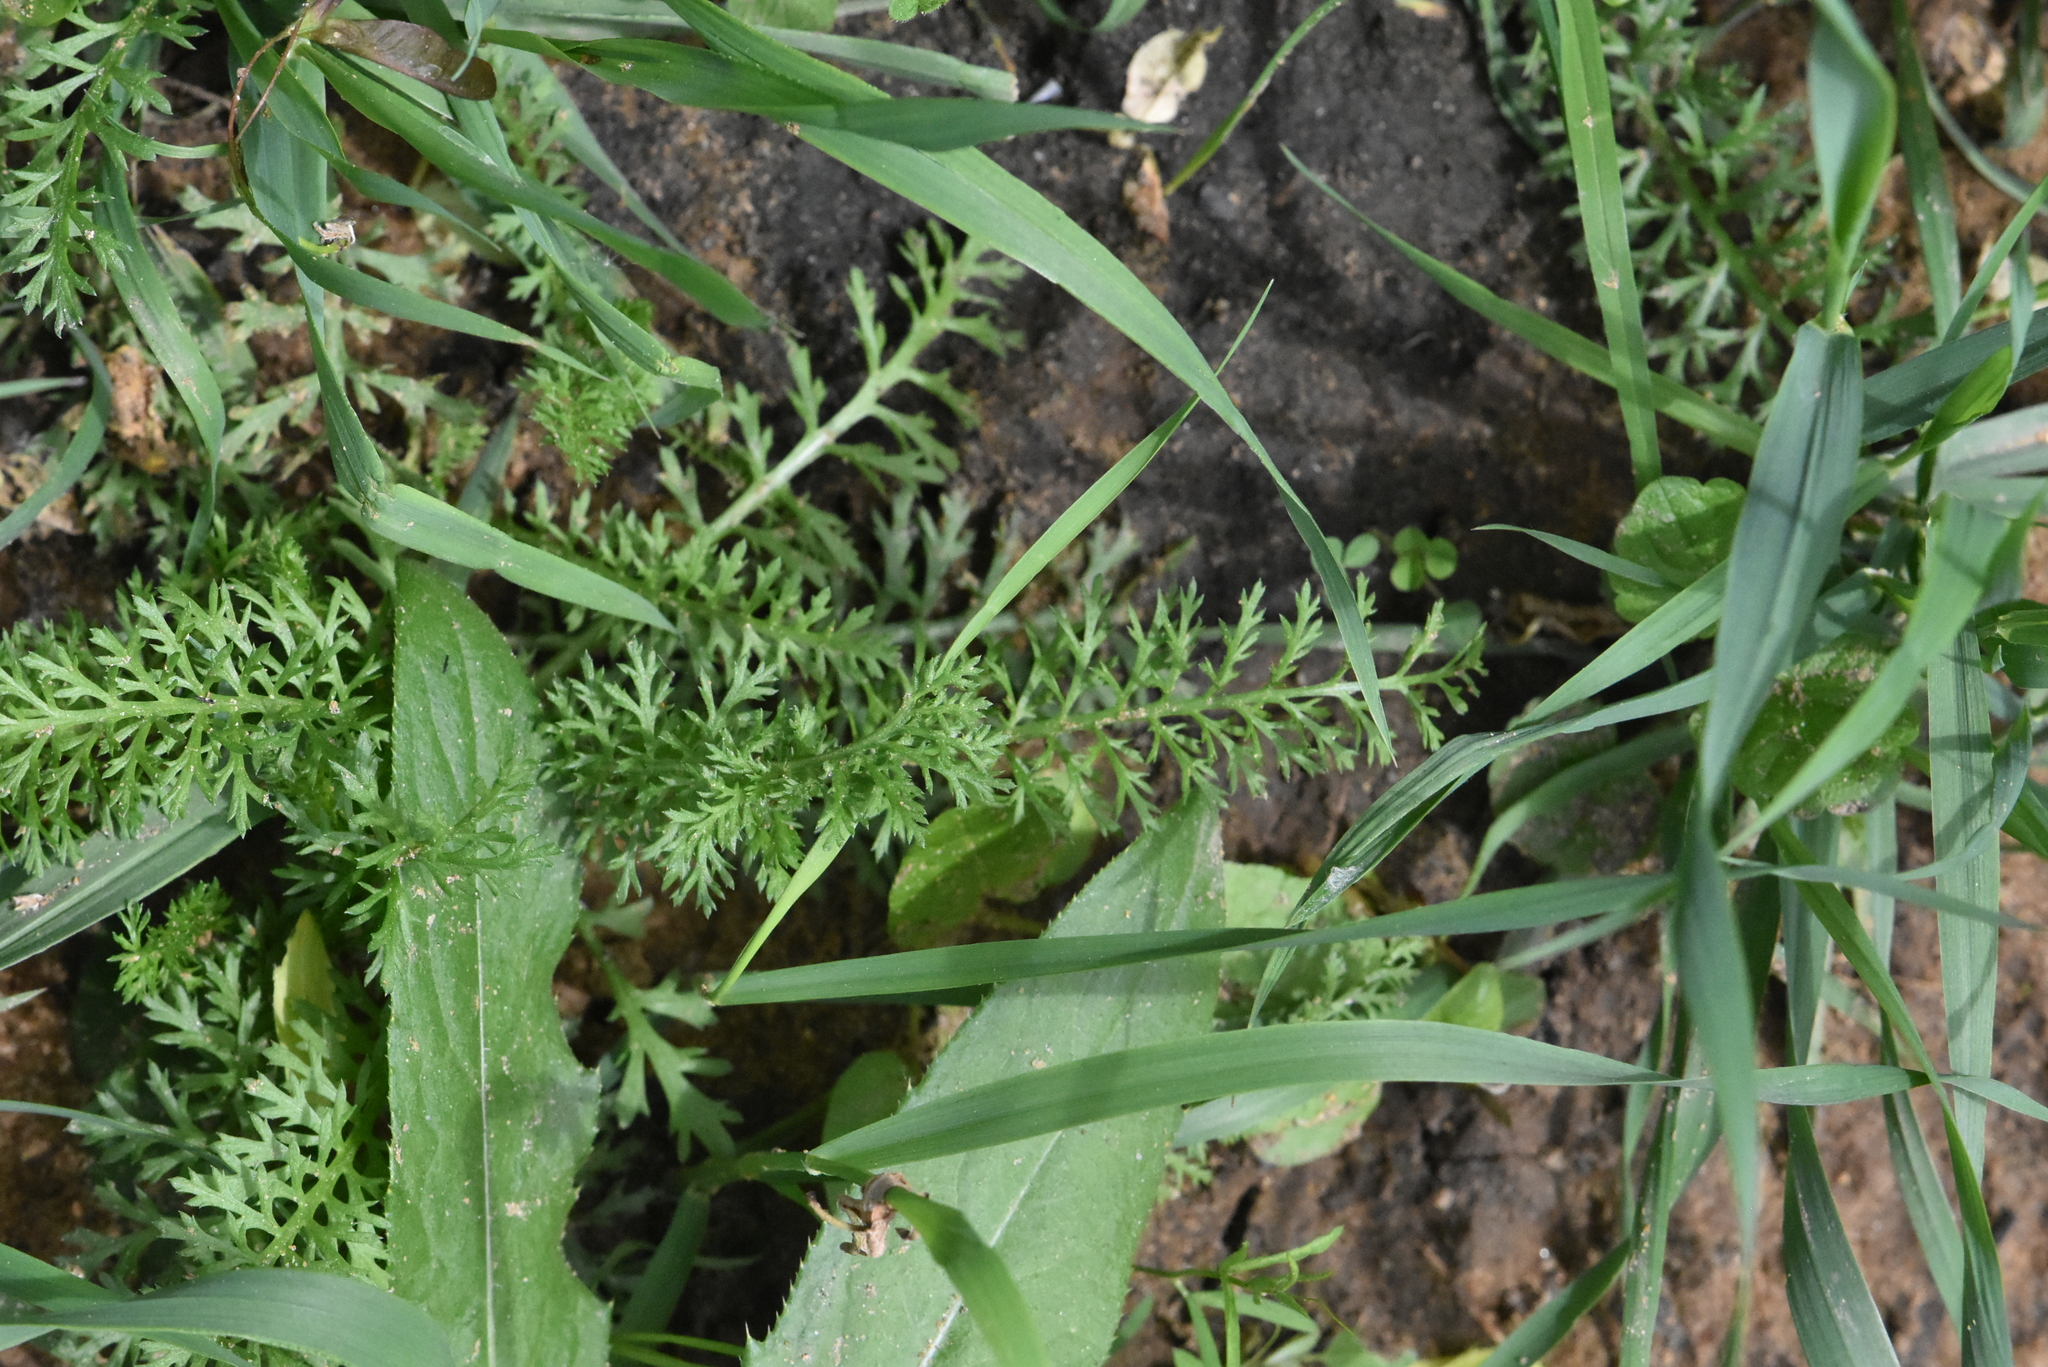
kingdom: Plantae
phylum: Tracheophyta
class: Magnoliopsida
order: Asterales
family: Asteraceae
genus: Achillea
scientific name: Achillea millefolium
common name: Yarrow
